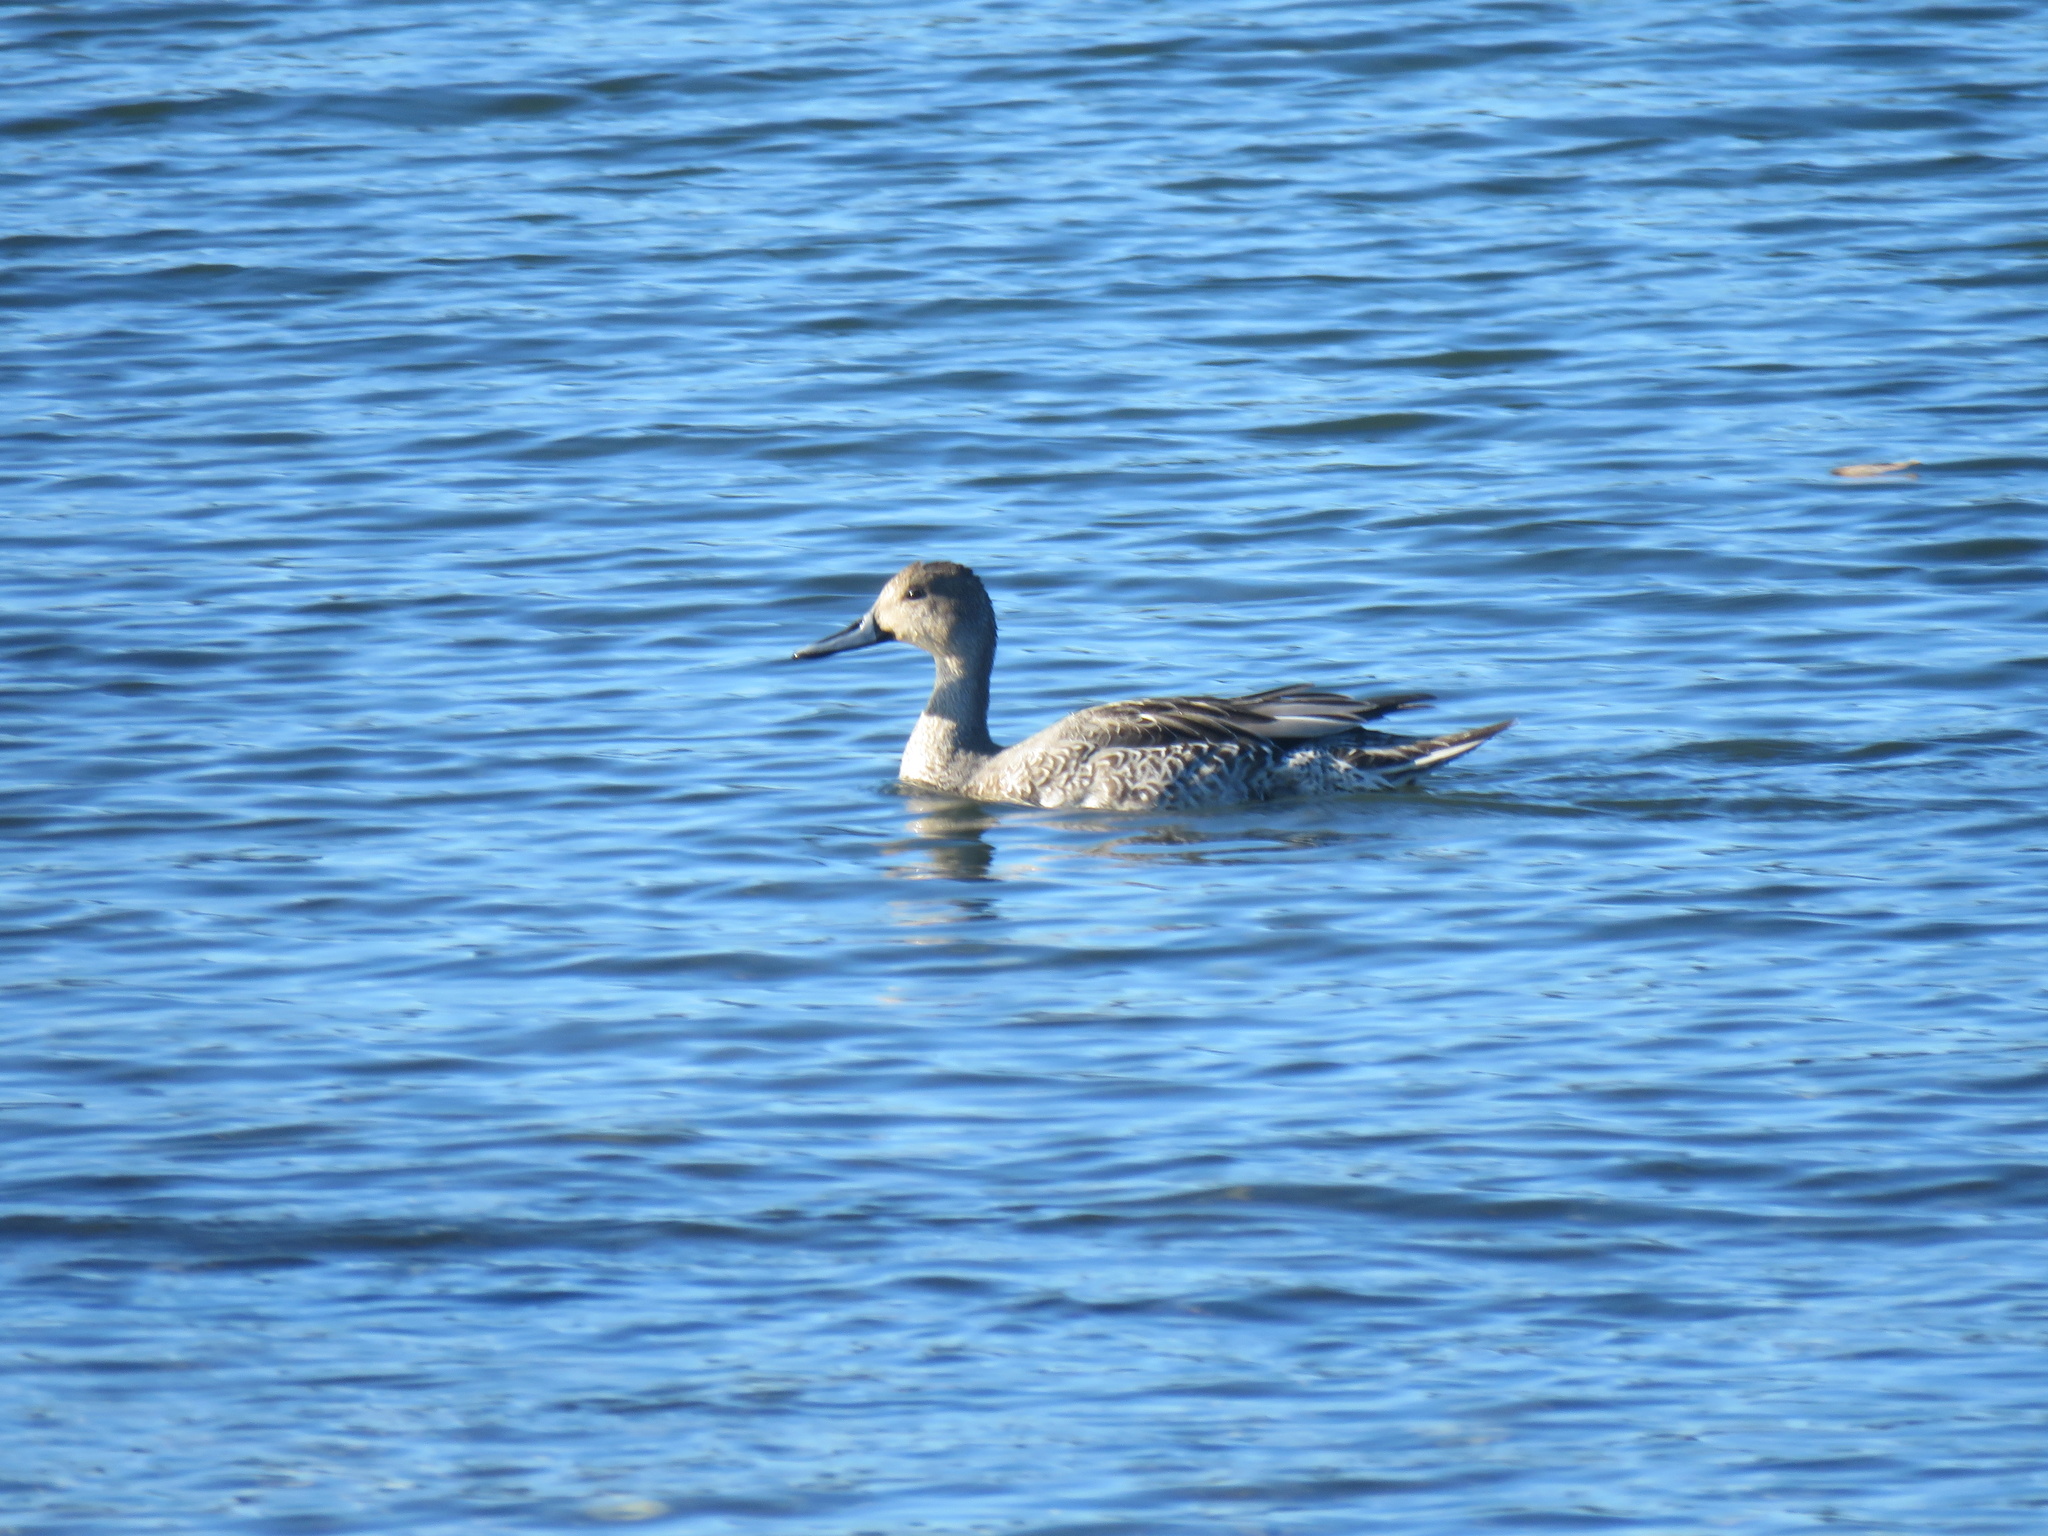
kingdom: Animalia
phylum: Chordata
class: Aves
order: Anseriformes
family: Anatidae
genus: Anas
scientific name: Anas acuta
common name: Northern pintail
